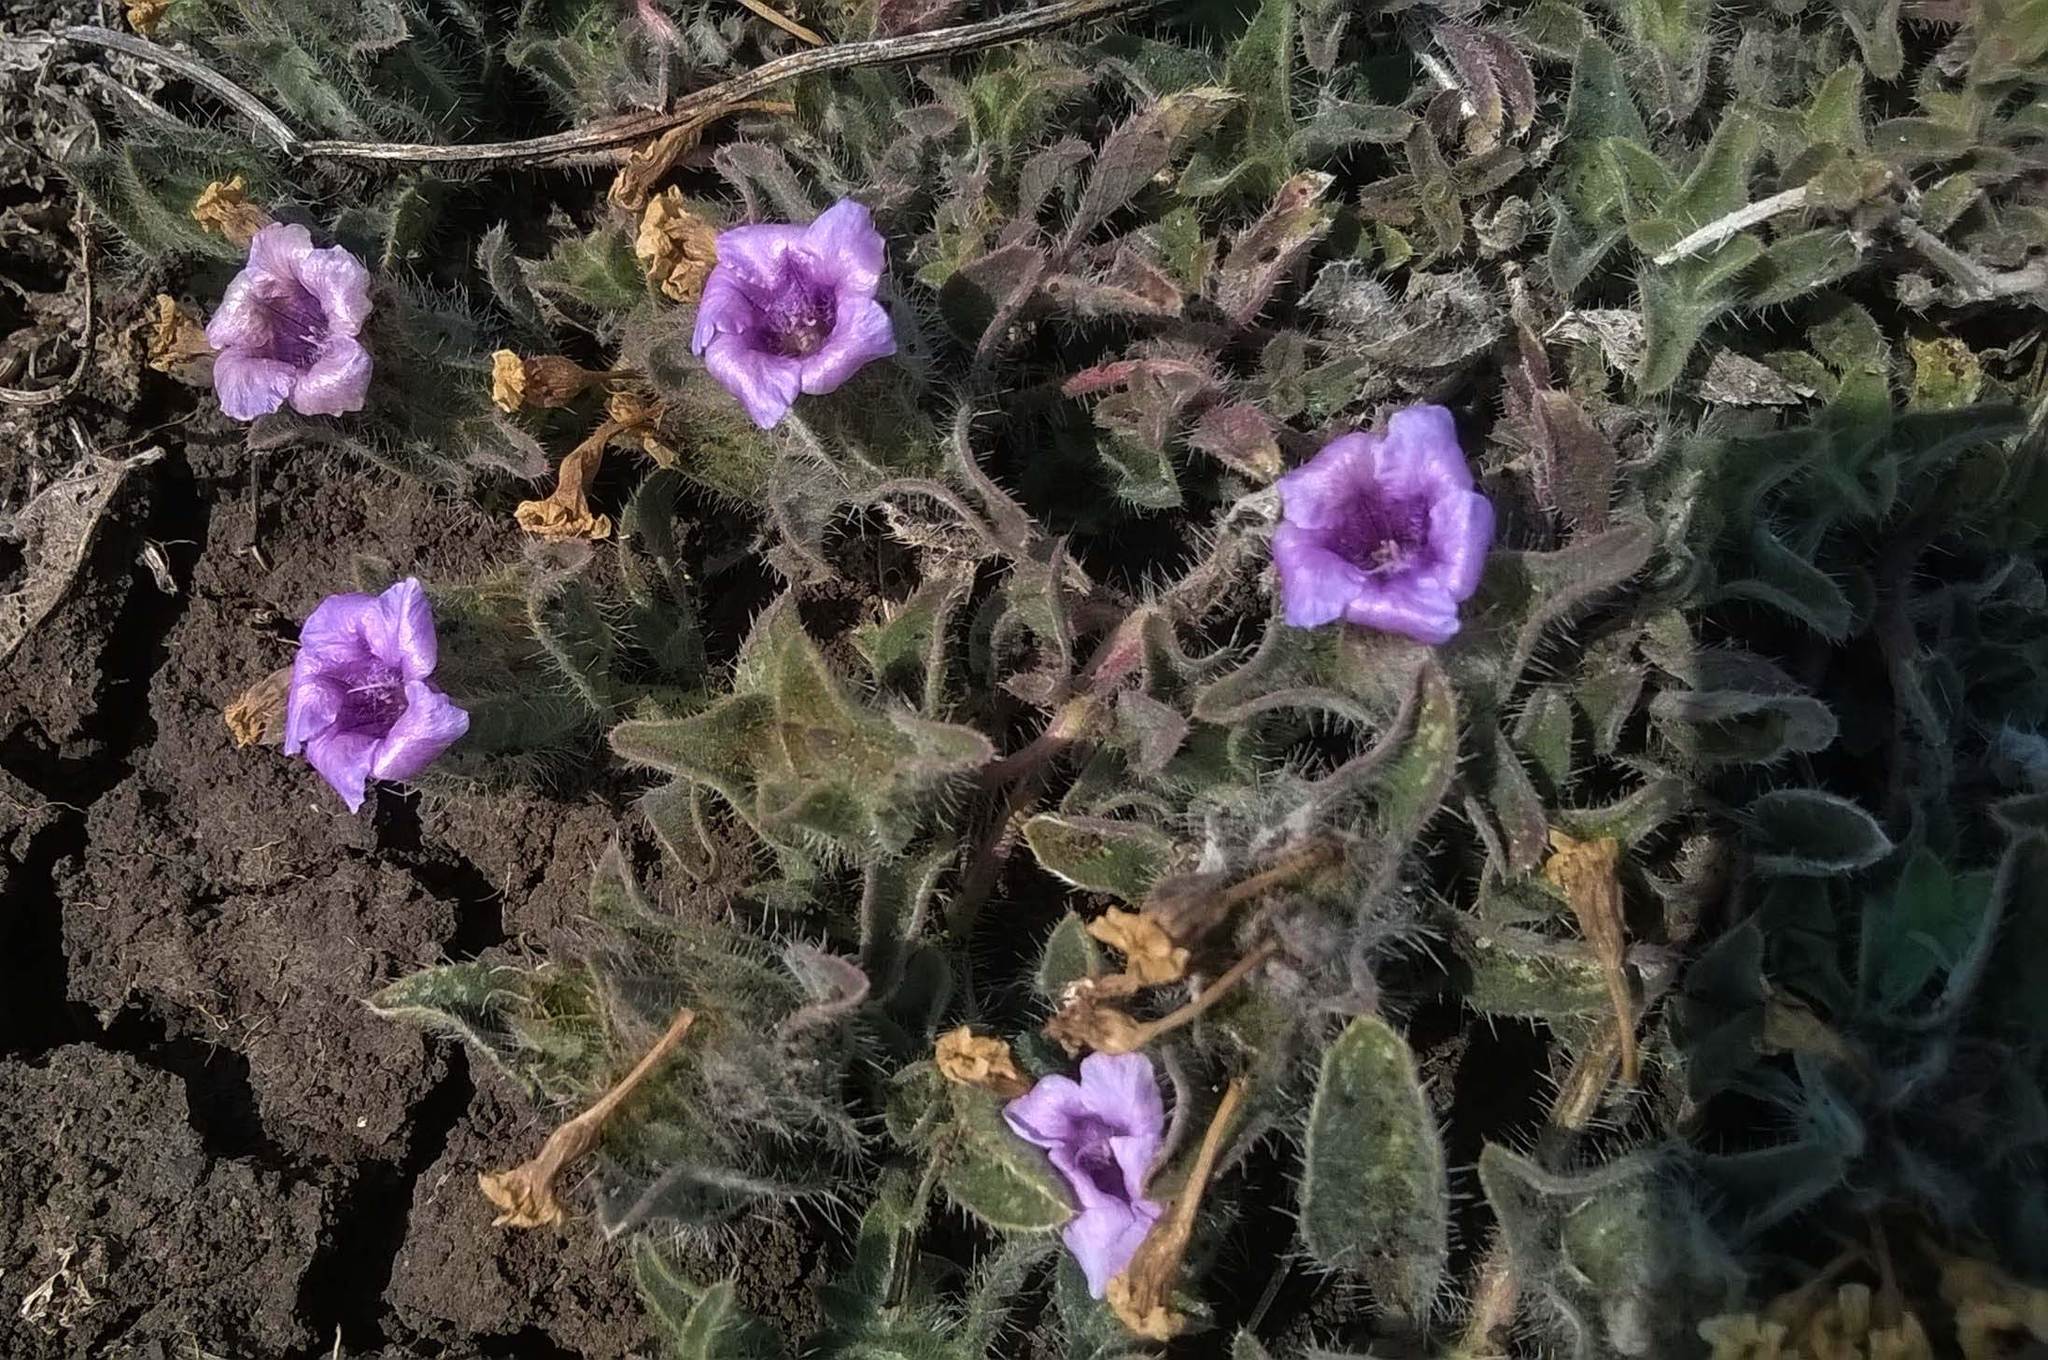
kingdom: Plantae
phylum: Tracheophyta
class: Magnoliopsida
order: Lamiales
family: Acanthaceae
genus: Strobilanthes
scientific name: Strobilanthes urens
